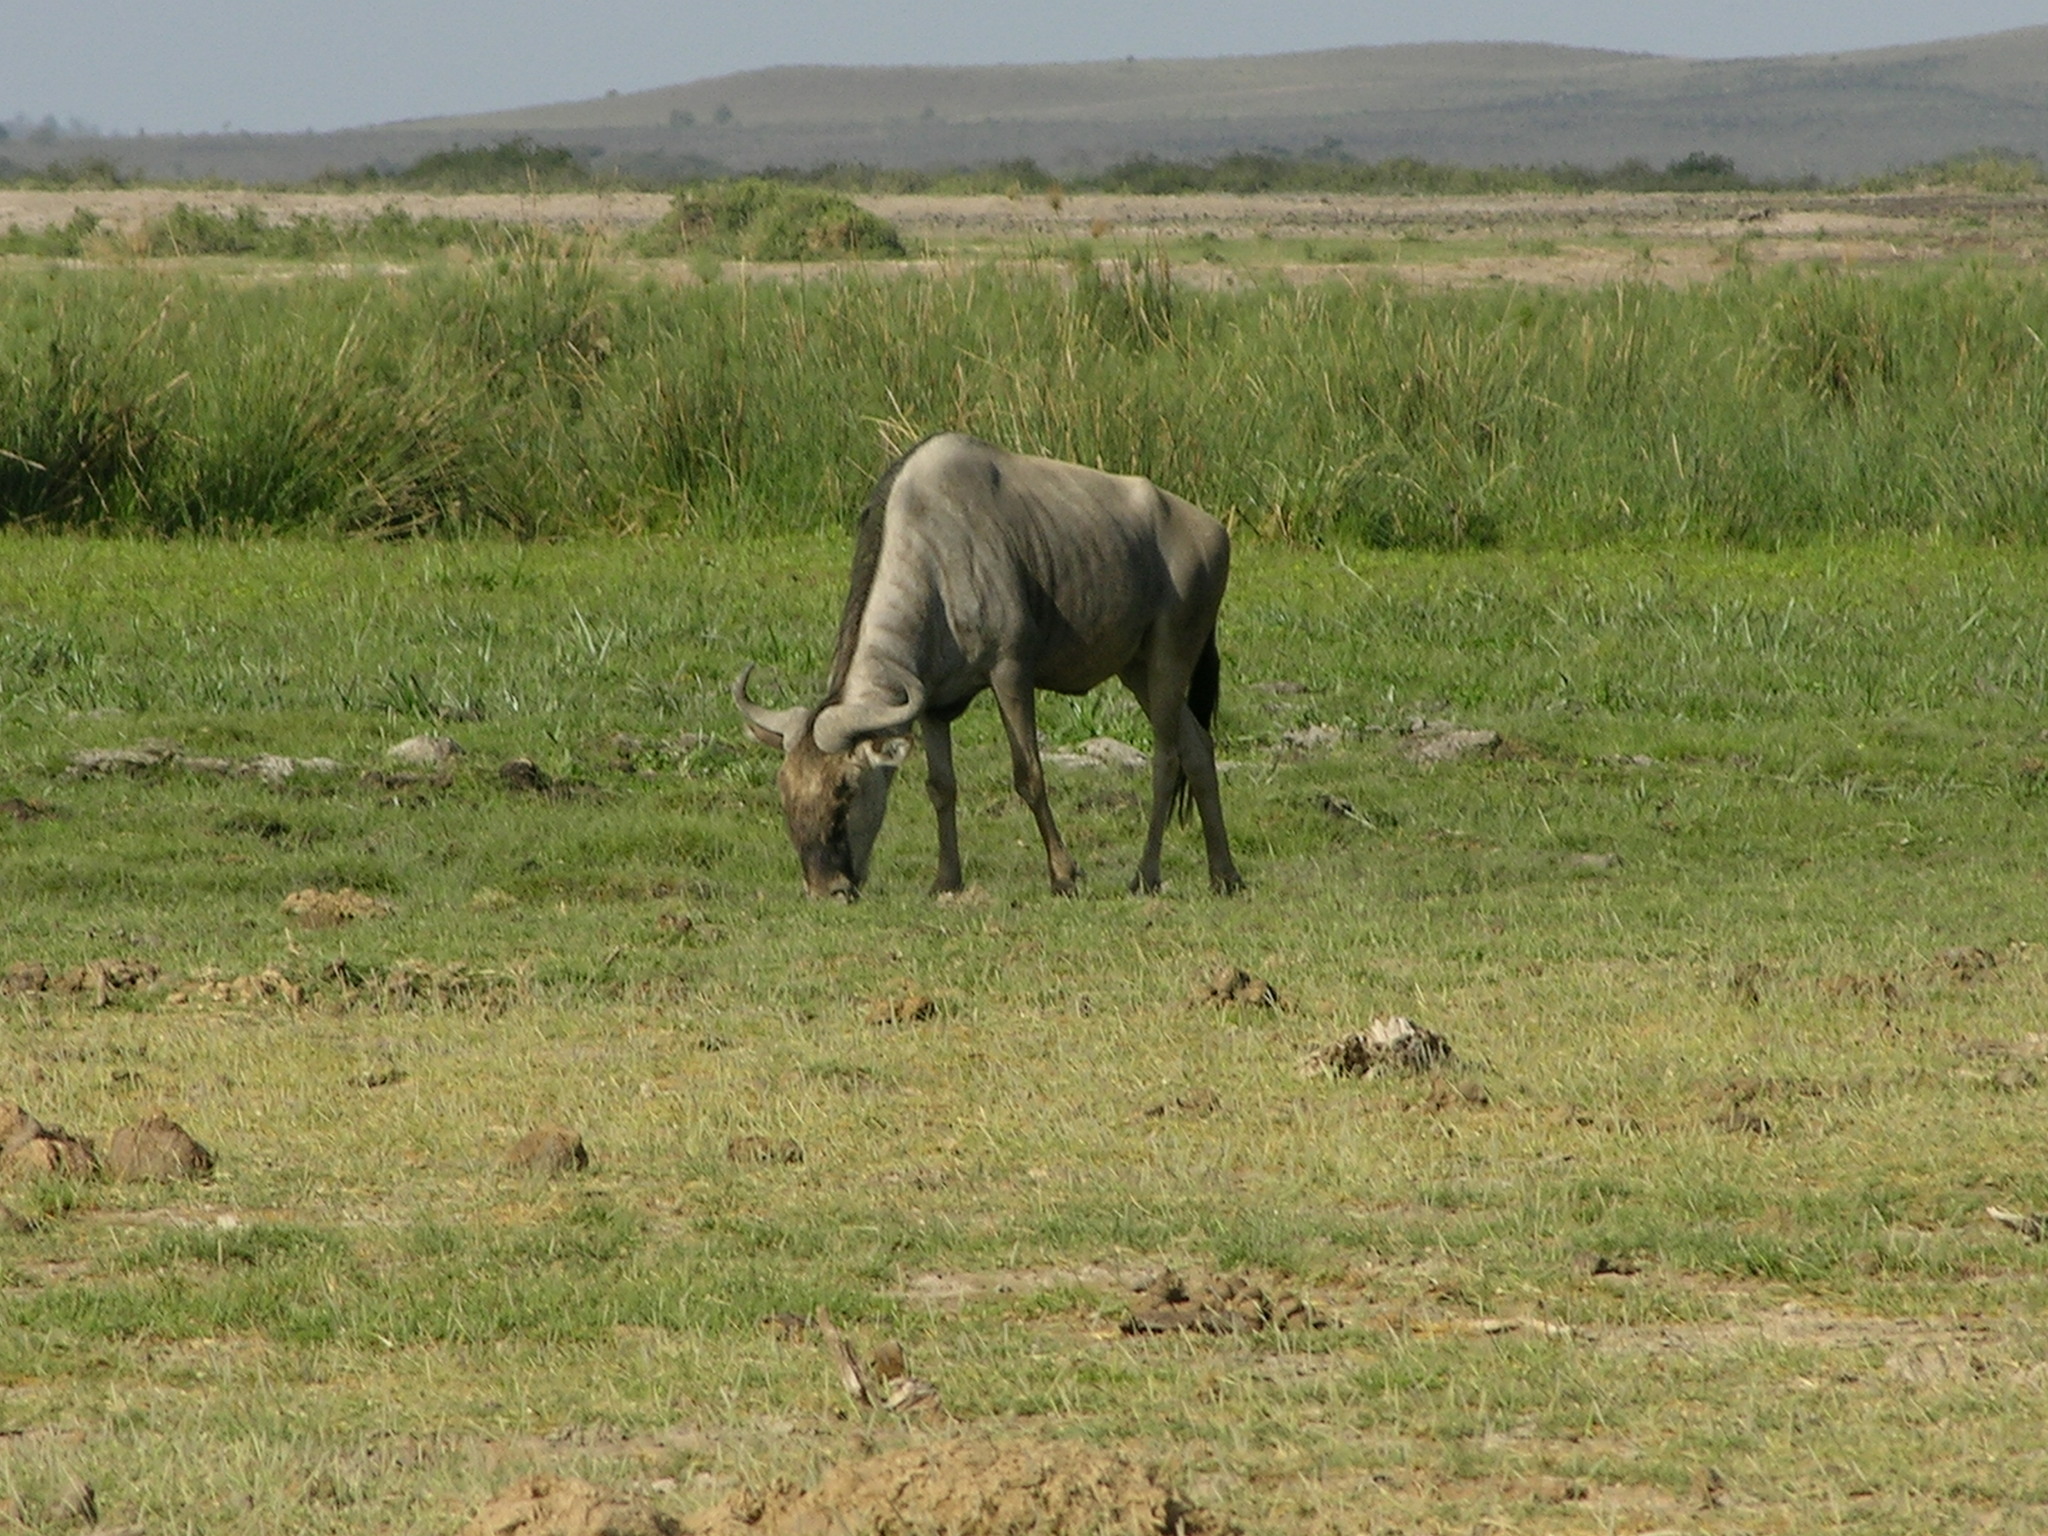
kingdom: Animalia
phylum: Chordata
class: Mammalia
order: Artiodactyla
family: Bovidae
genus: Connochaetes
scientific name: Connochaetes taurinus
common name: Blue wildebeest
